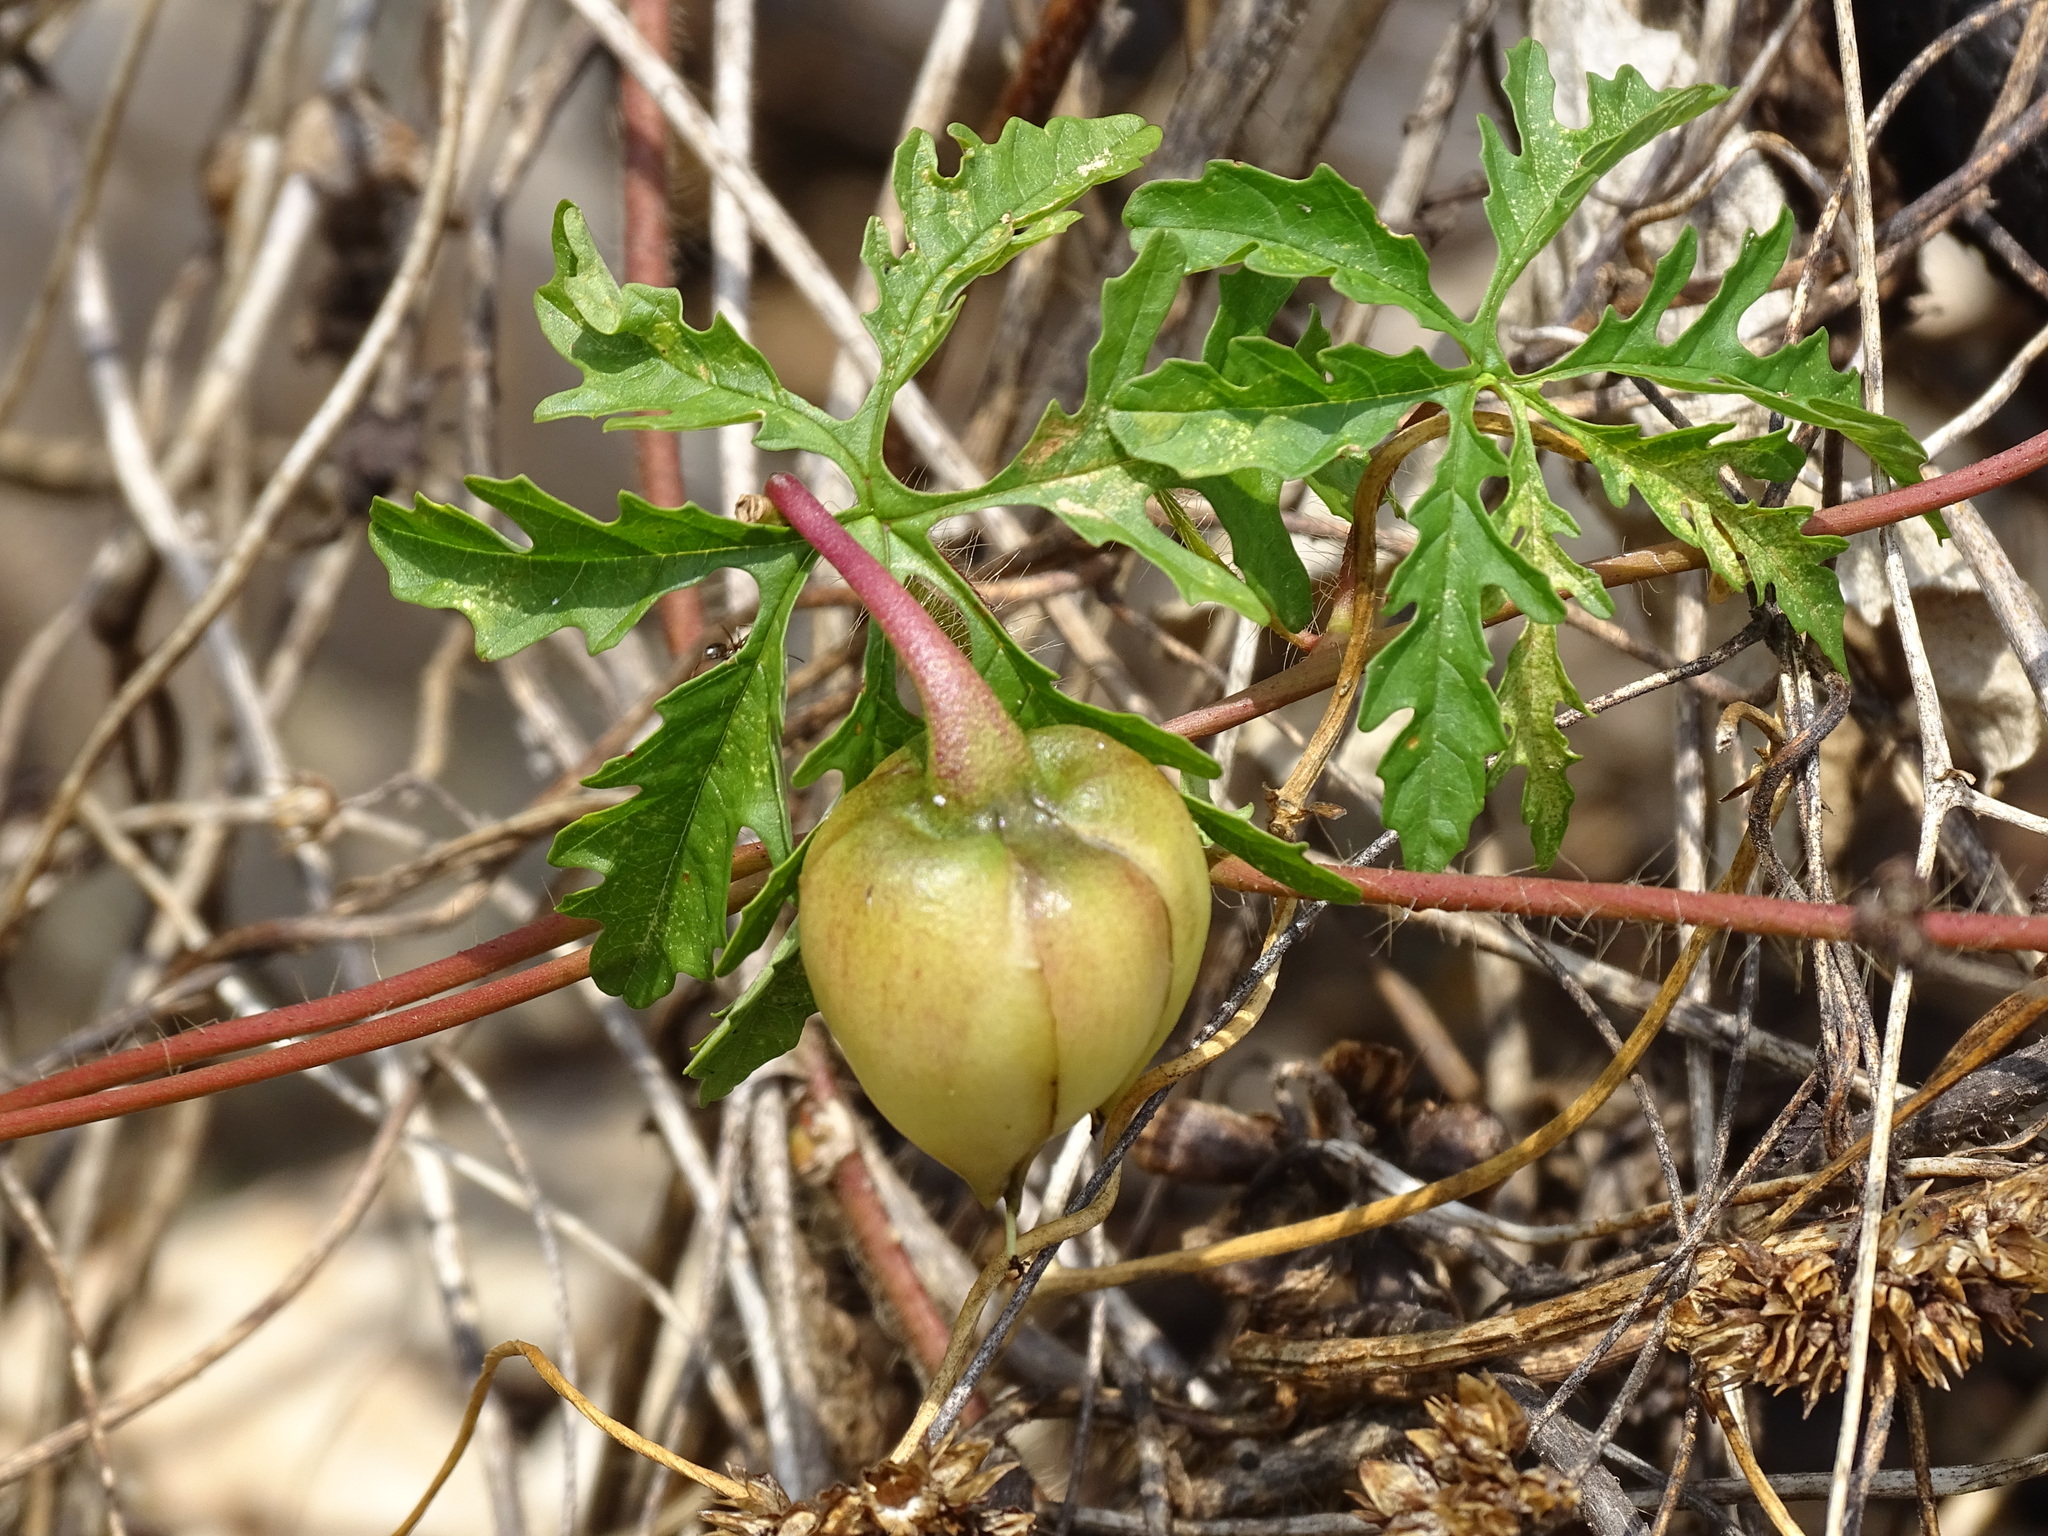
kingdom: Plantae
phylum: Tracheophyta
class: Magnoliopsida
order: Solanales
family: Convolvulaceae
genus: Distimake
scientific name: Distimake dissectus
